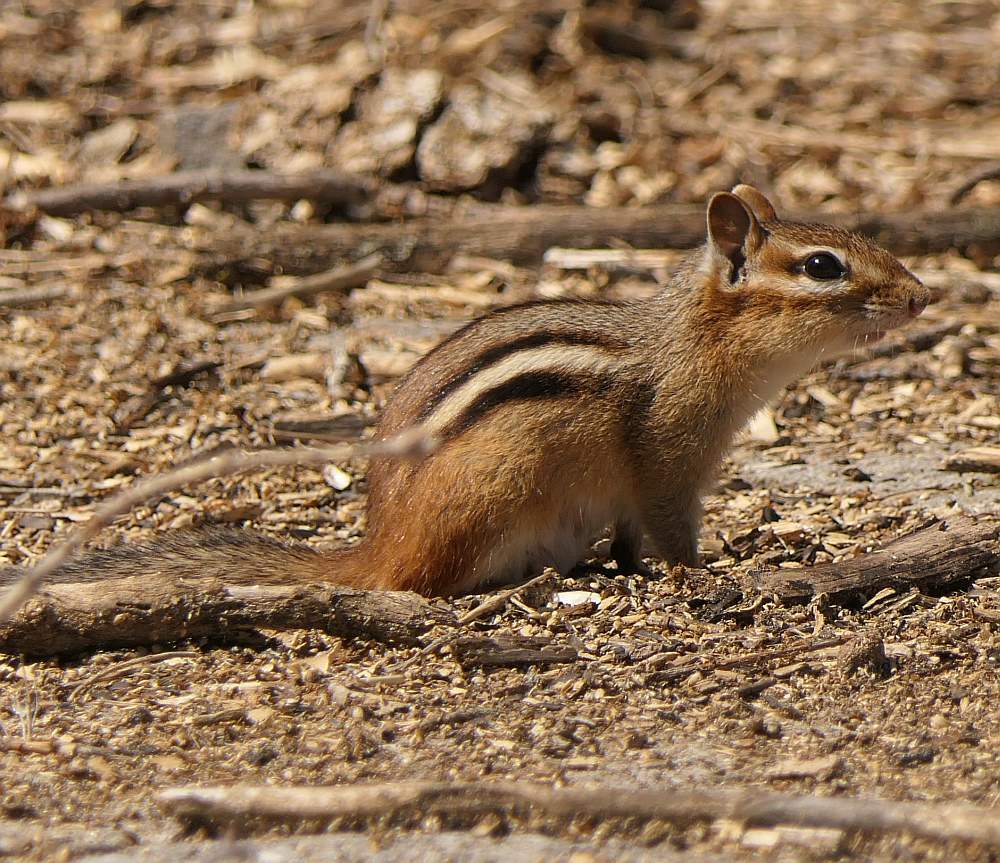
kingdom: Animalia
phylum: Chordata
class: Mammalia
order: Rodentia
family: Sciuridae
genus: Tamias
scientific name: Tamias striatus
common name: Eastern chipmunk
